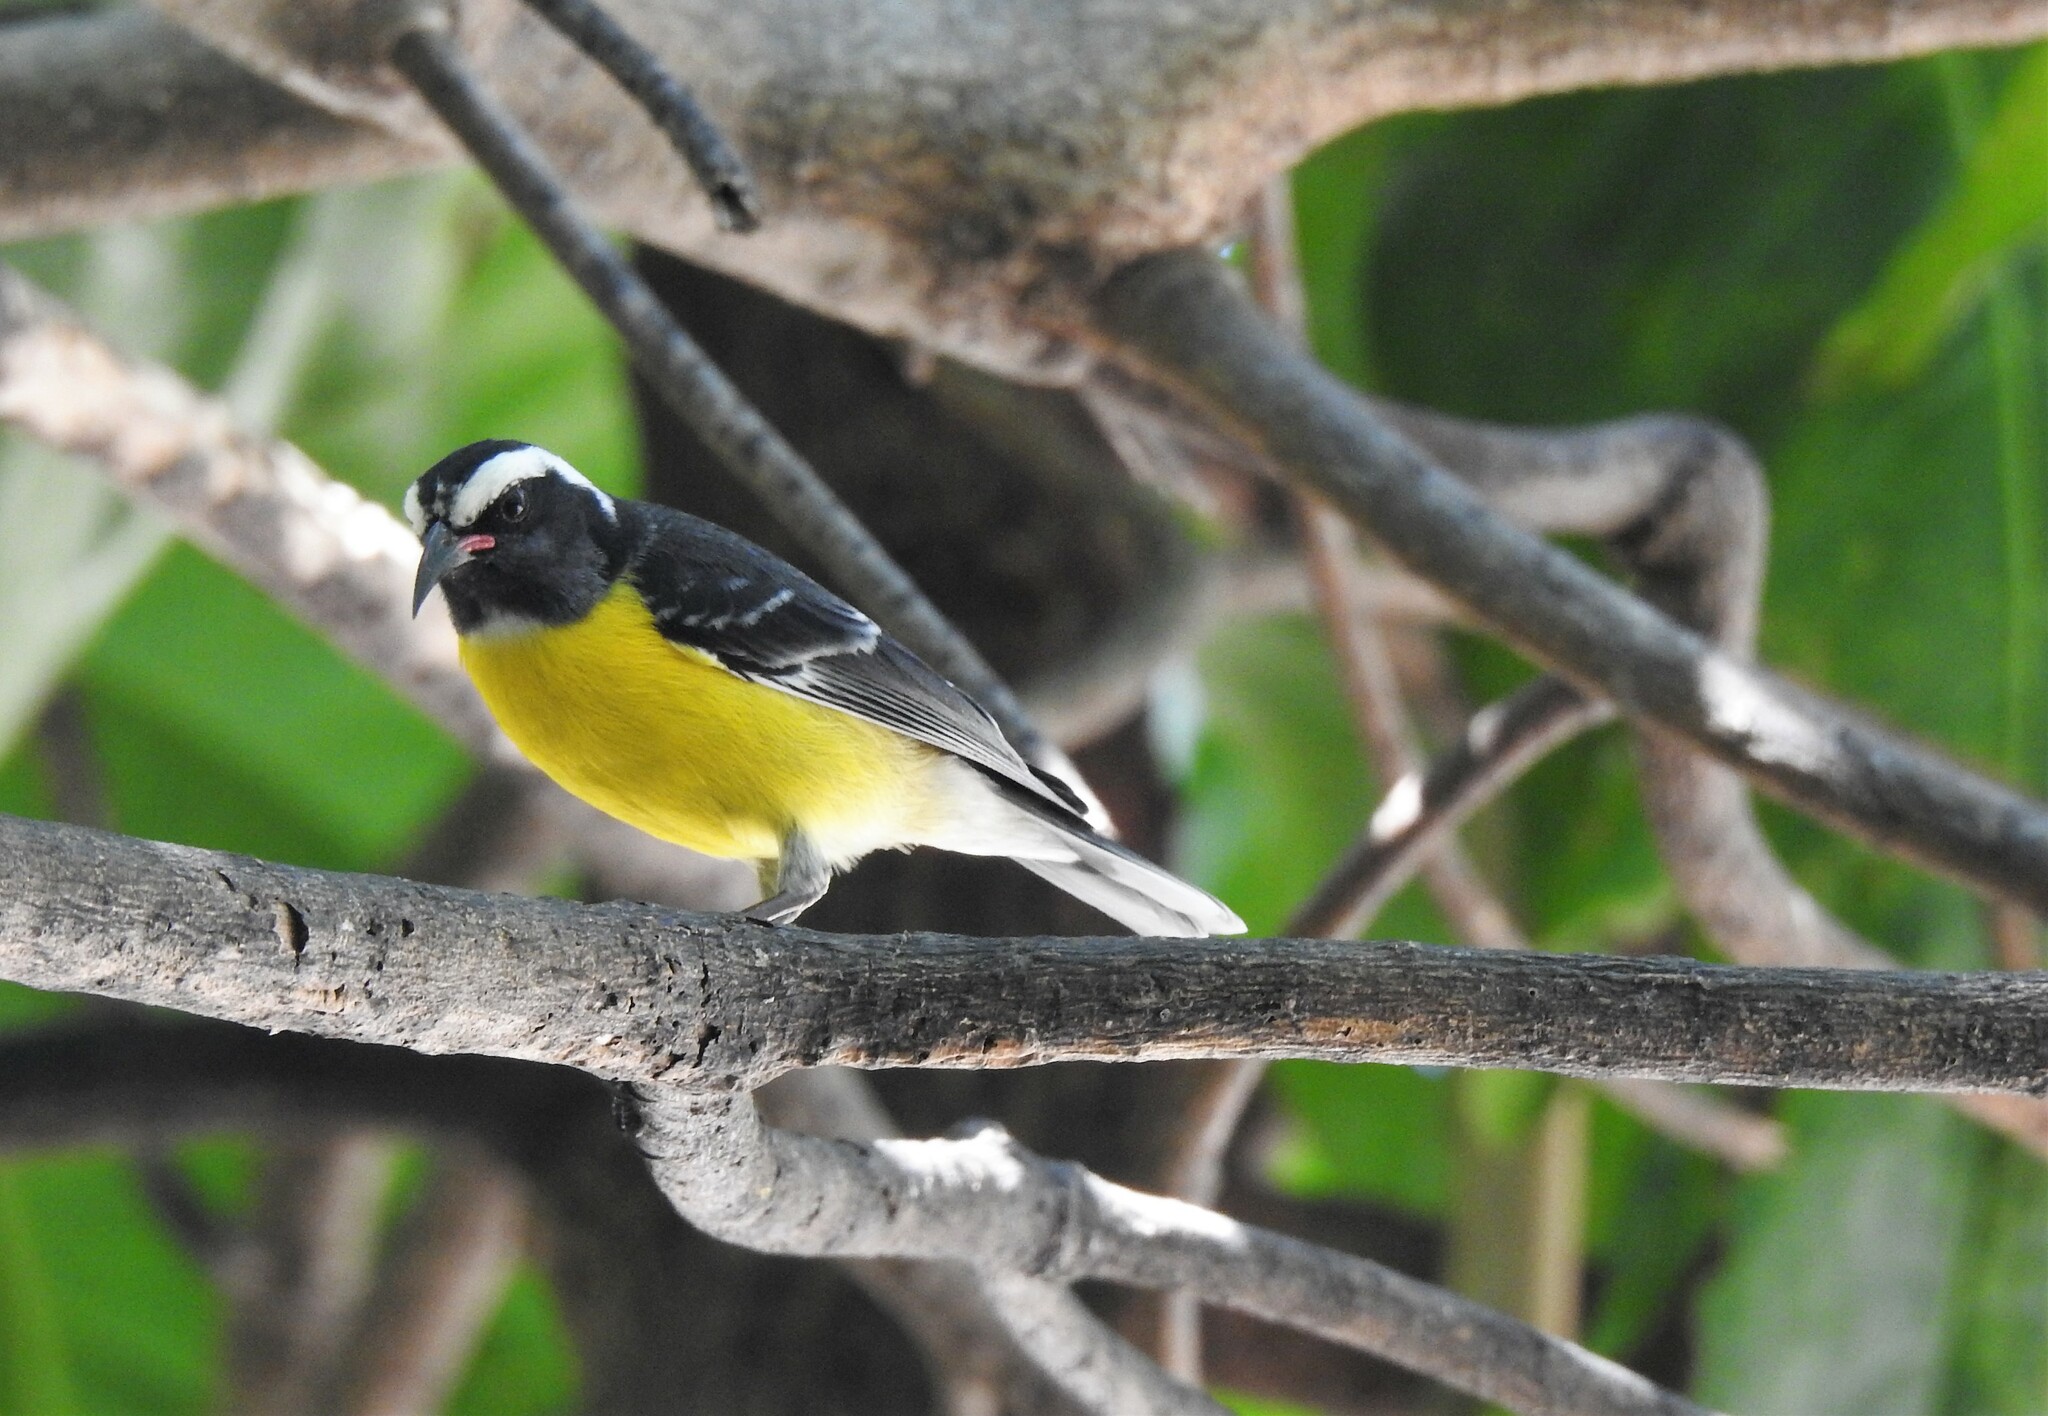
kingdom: Animalia
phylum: Chordata
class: Aves
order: Passeriformes
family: Thraupidae
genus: Coereba
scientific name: Coereba flaveola
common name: Bananaquit
